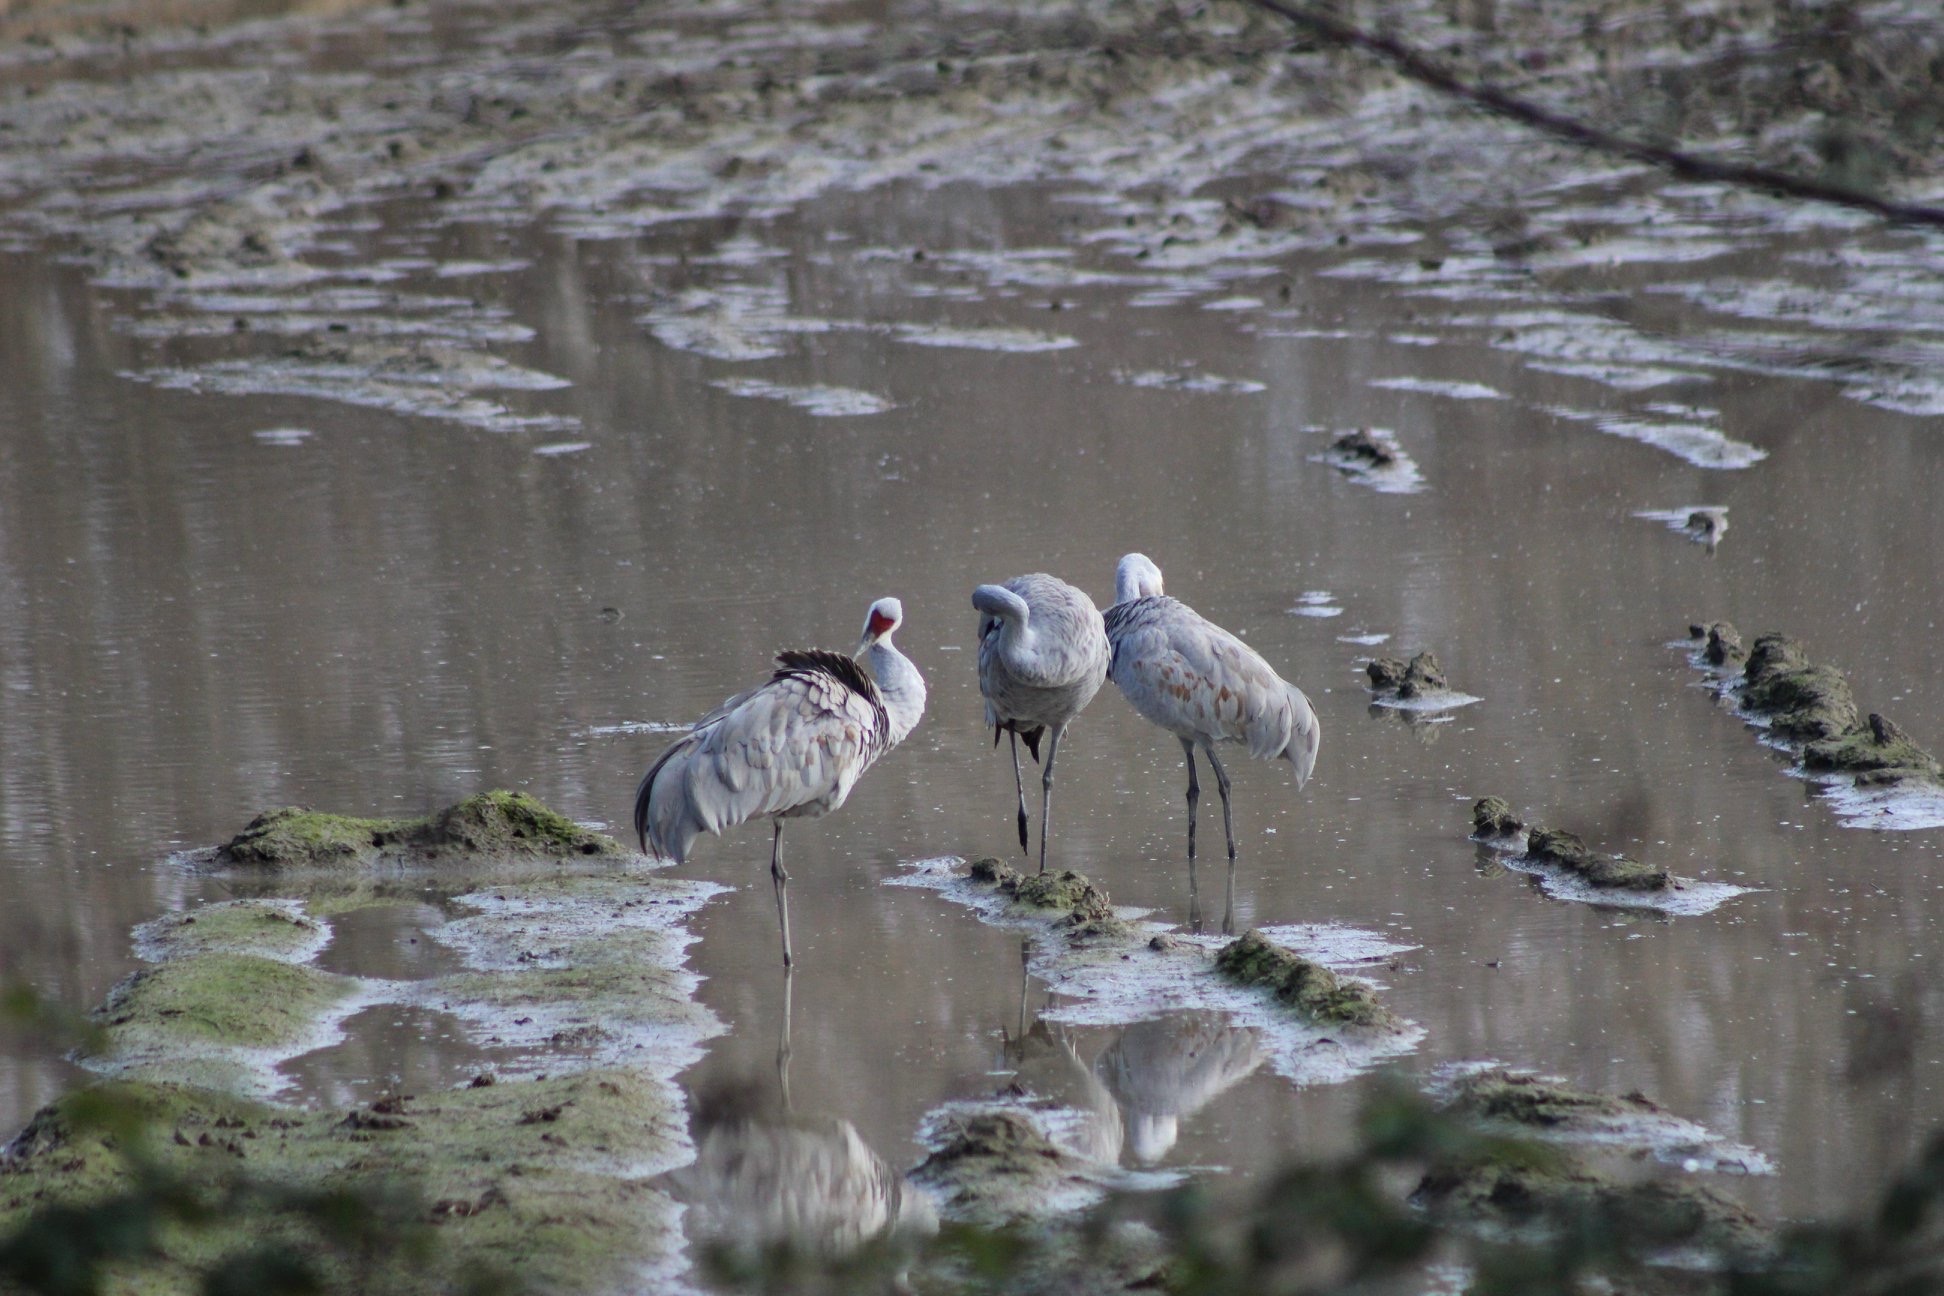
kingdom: Animalia
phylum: Chordata
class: Aves
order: Gruiformes
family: Gruidae
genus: Grus
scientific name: Grus canadensis
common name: Sandhill crane
